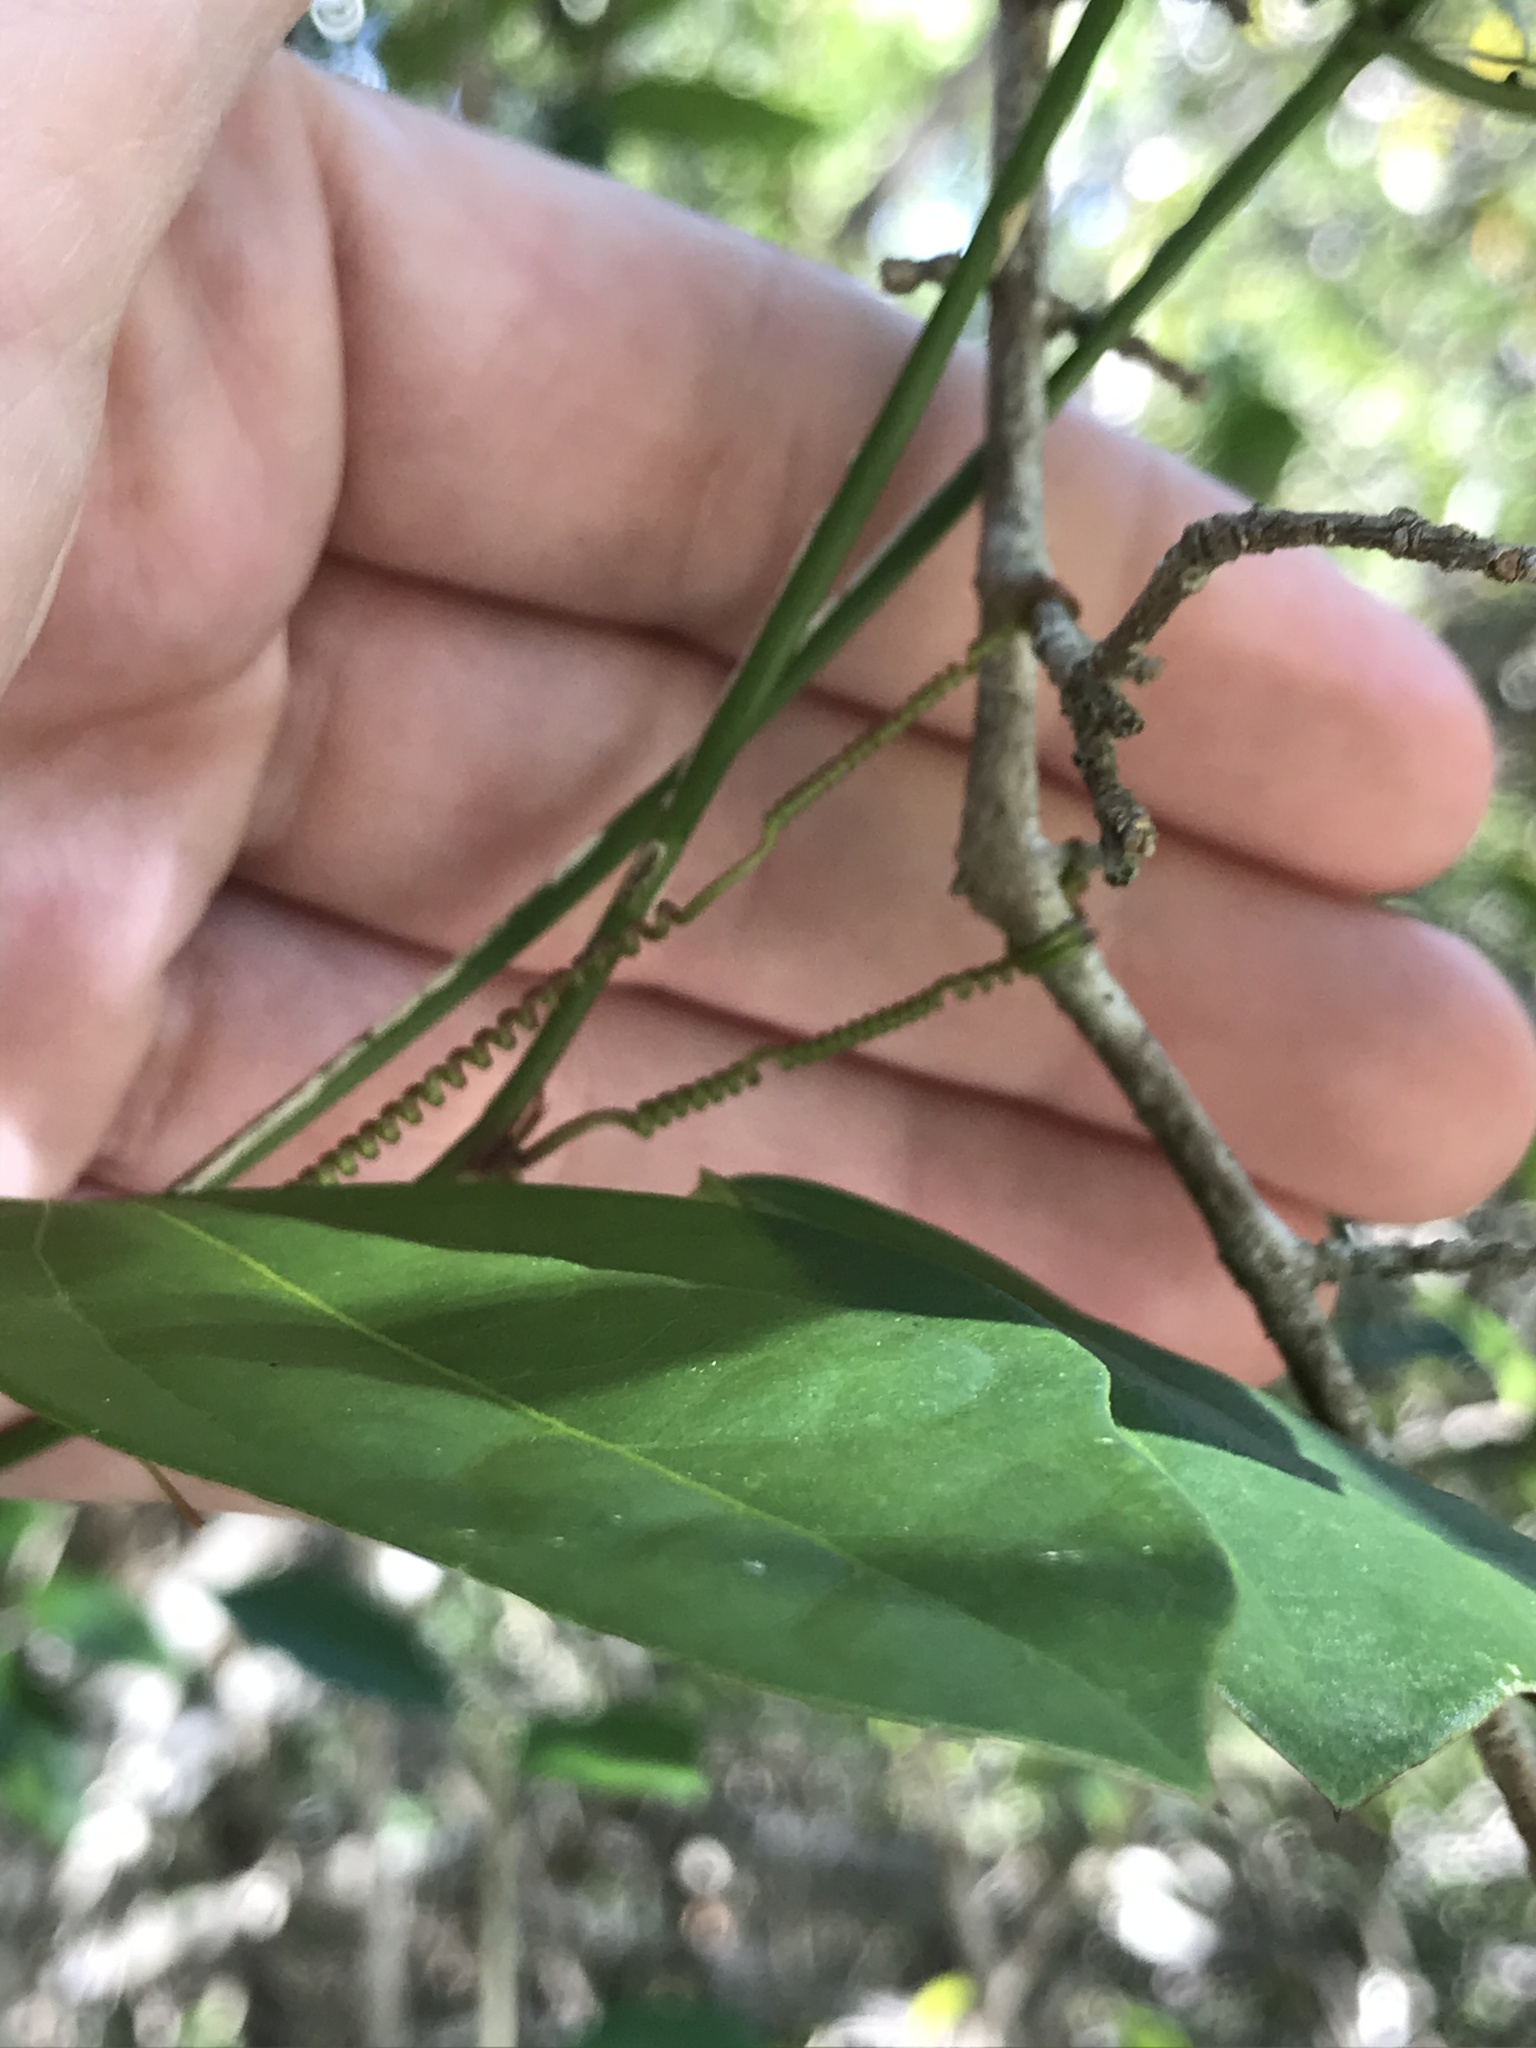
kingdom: Plantae
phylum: Tracheophyta
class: Magnoliopsida
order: Malpighiales
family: Passifloraceae
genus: Passiflora
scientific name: Passiflora pallida
